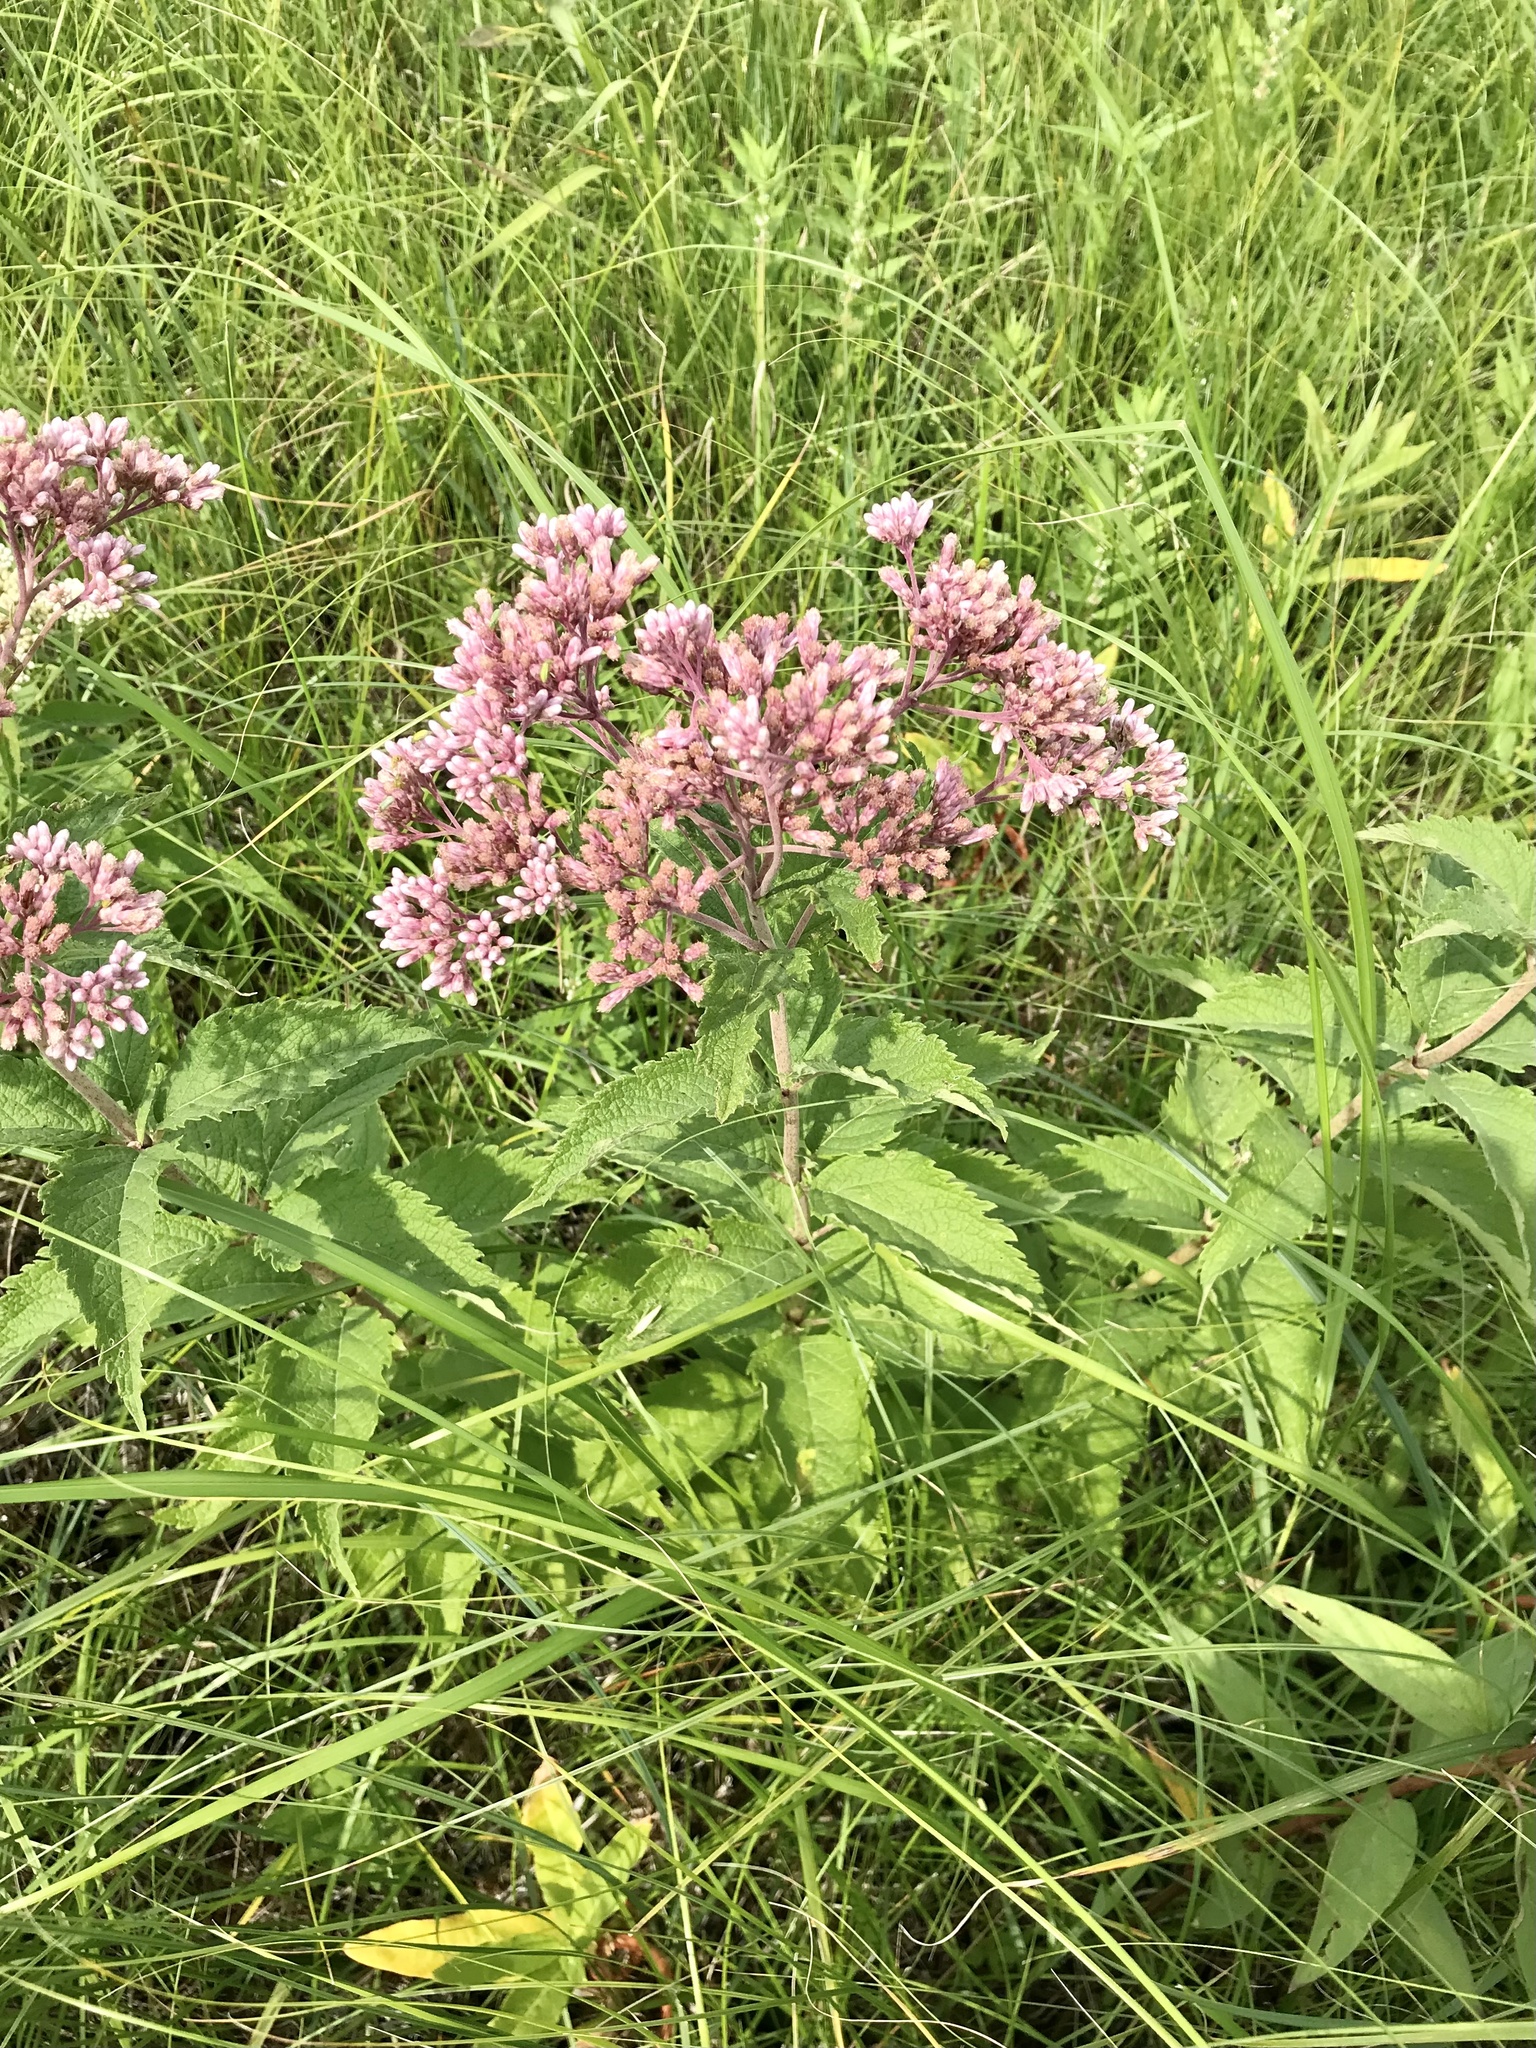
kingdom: Plantae
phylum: Tracheophyta
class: Magnoliopsida
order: Asterales
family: Asteraceae
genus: Eutrochium
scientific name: Eutrochium maculatum
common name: Spotted joe pye weed
